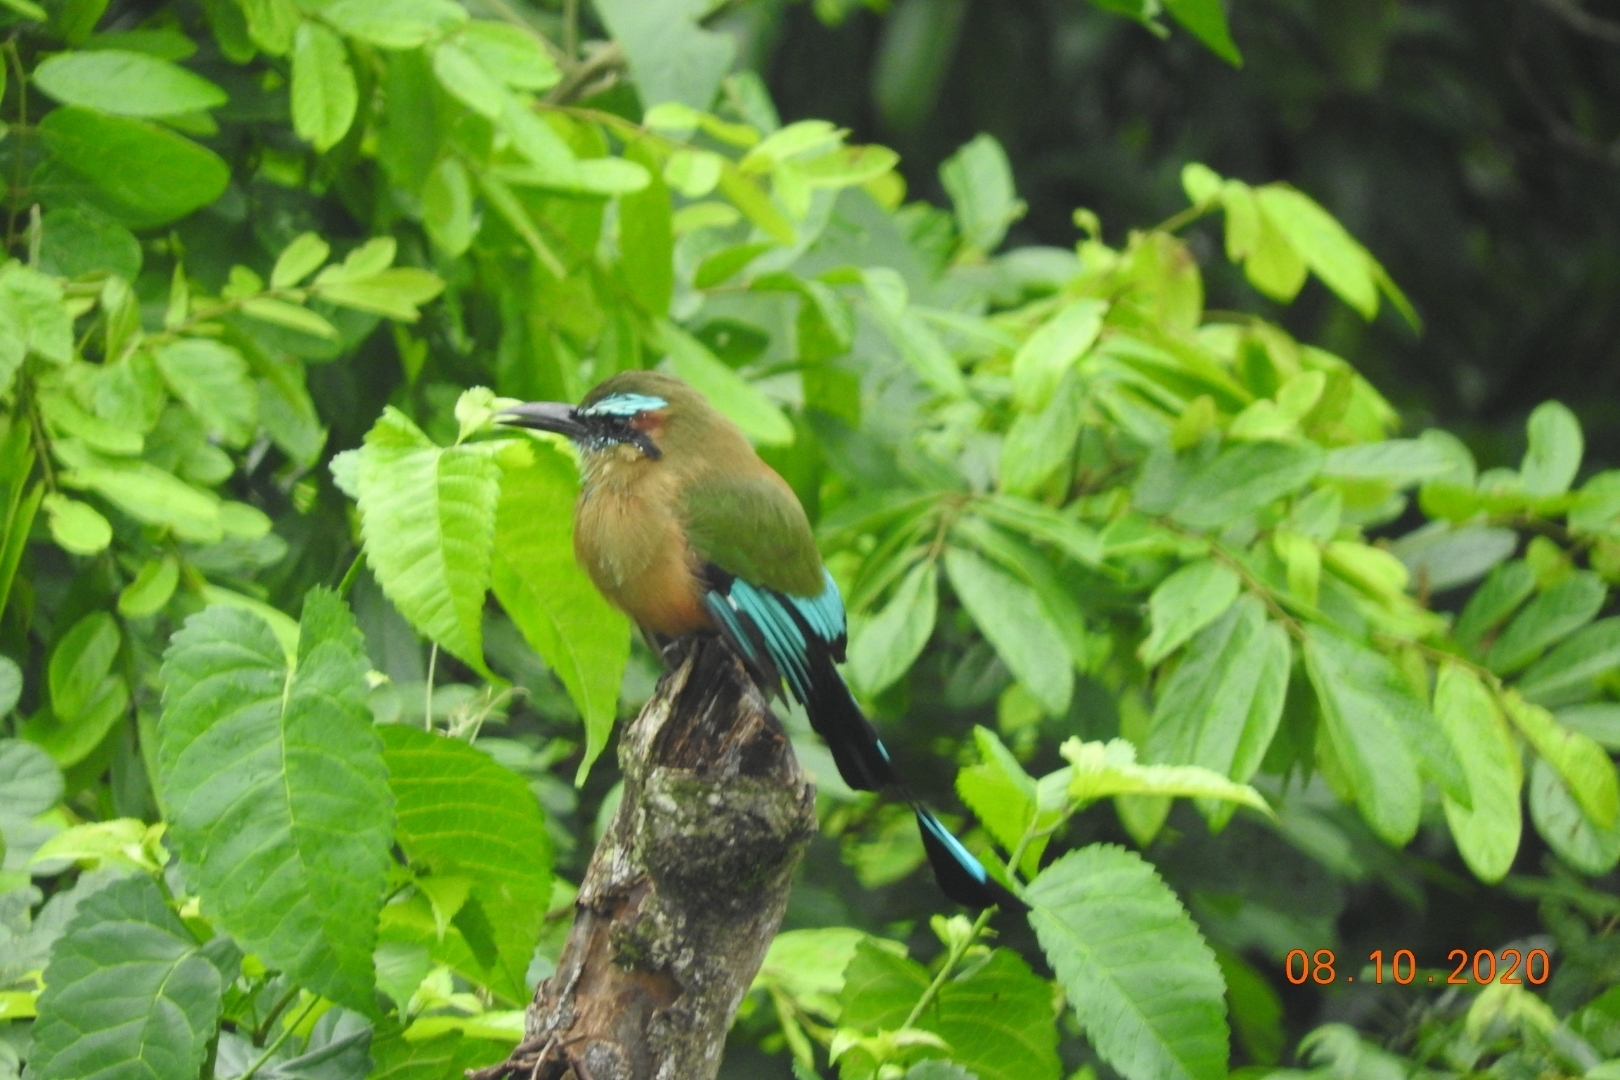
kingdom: Animalia
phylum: Chordata
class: Aves
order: Coraciiformes
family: Momotidae
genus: Eumomota
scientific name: Eumomota superciliosa
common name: Turquoise-browed motmot
